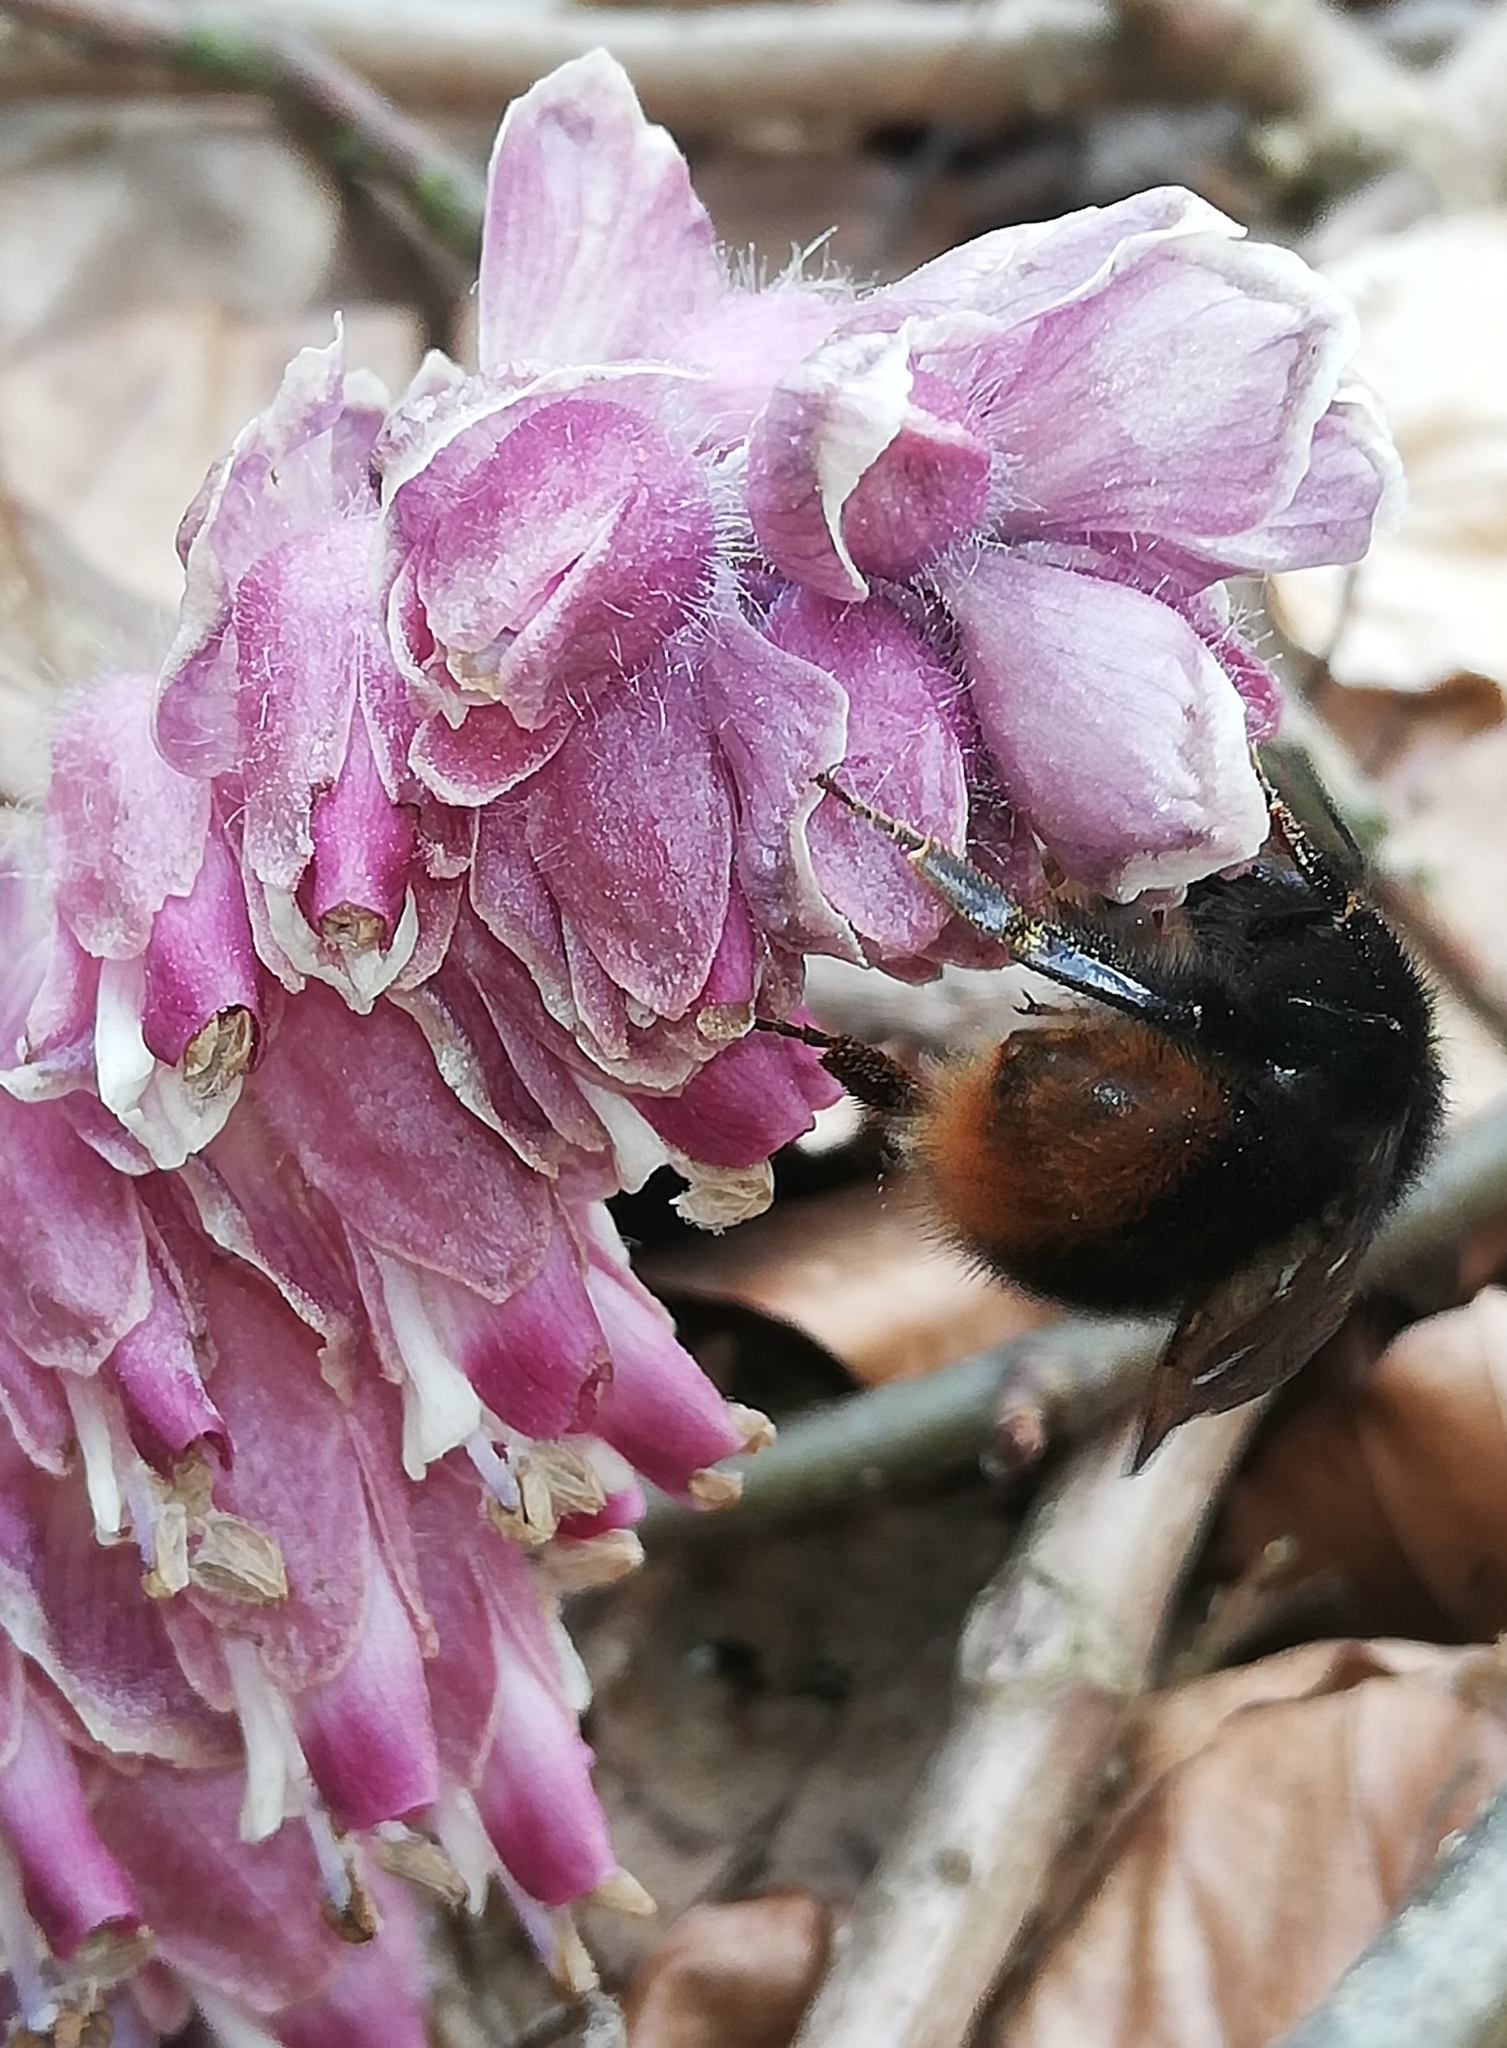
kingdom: Plantae
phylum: Tracheophyta
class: Magnoliopsida
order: Lamiales
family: Orobanchaceae
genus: Lathraea
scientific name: Lathraea squamaria
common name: Toothwort
